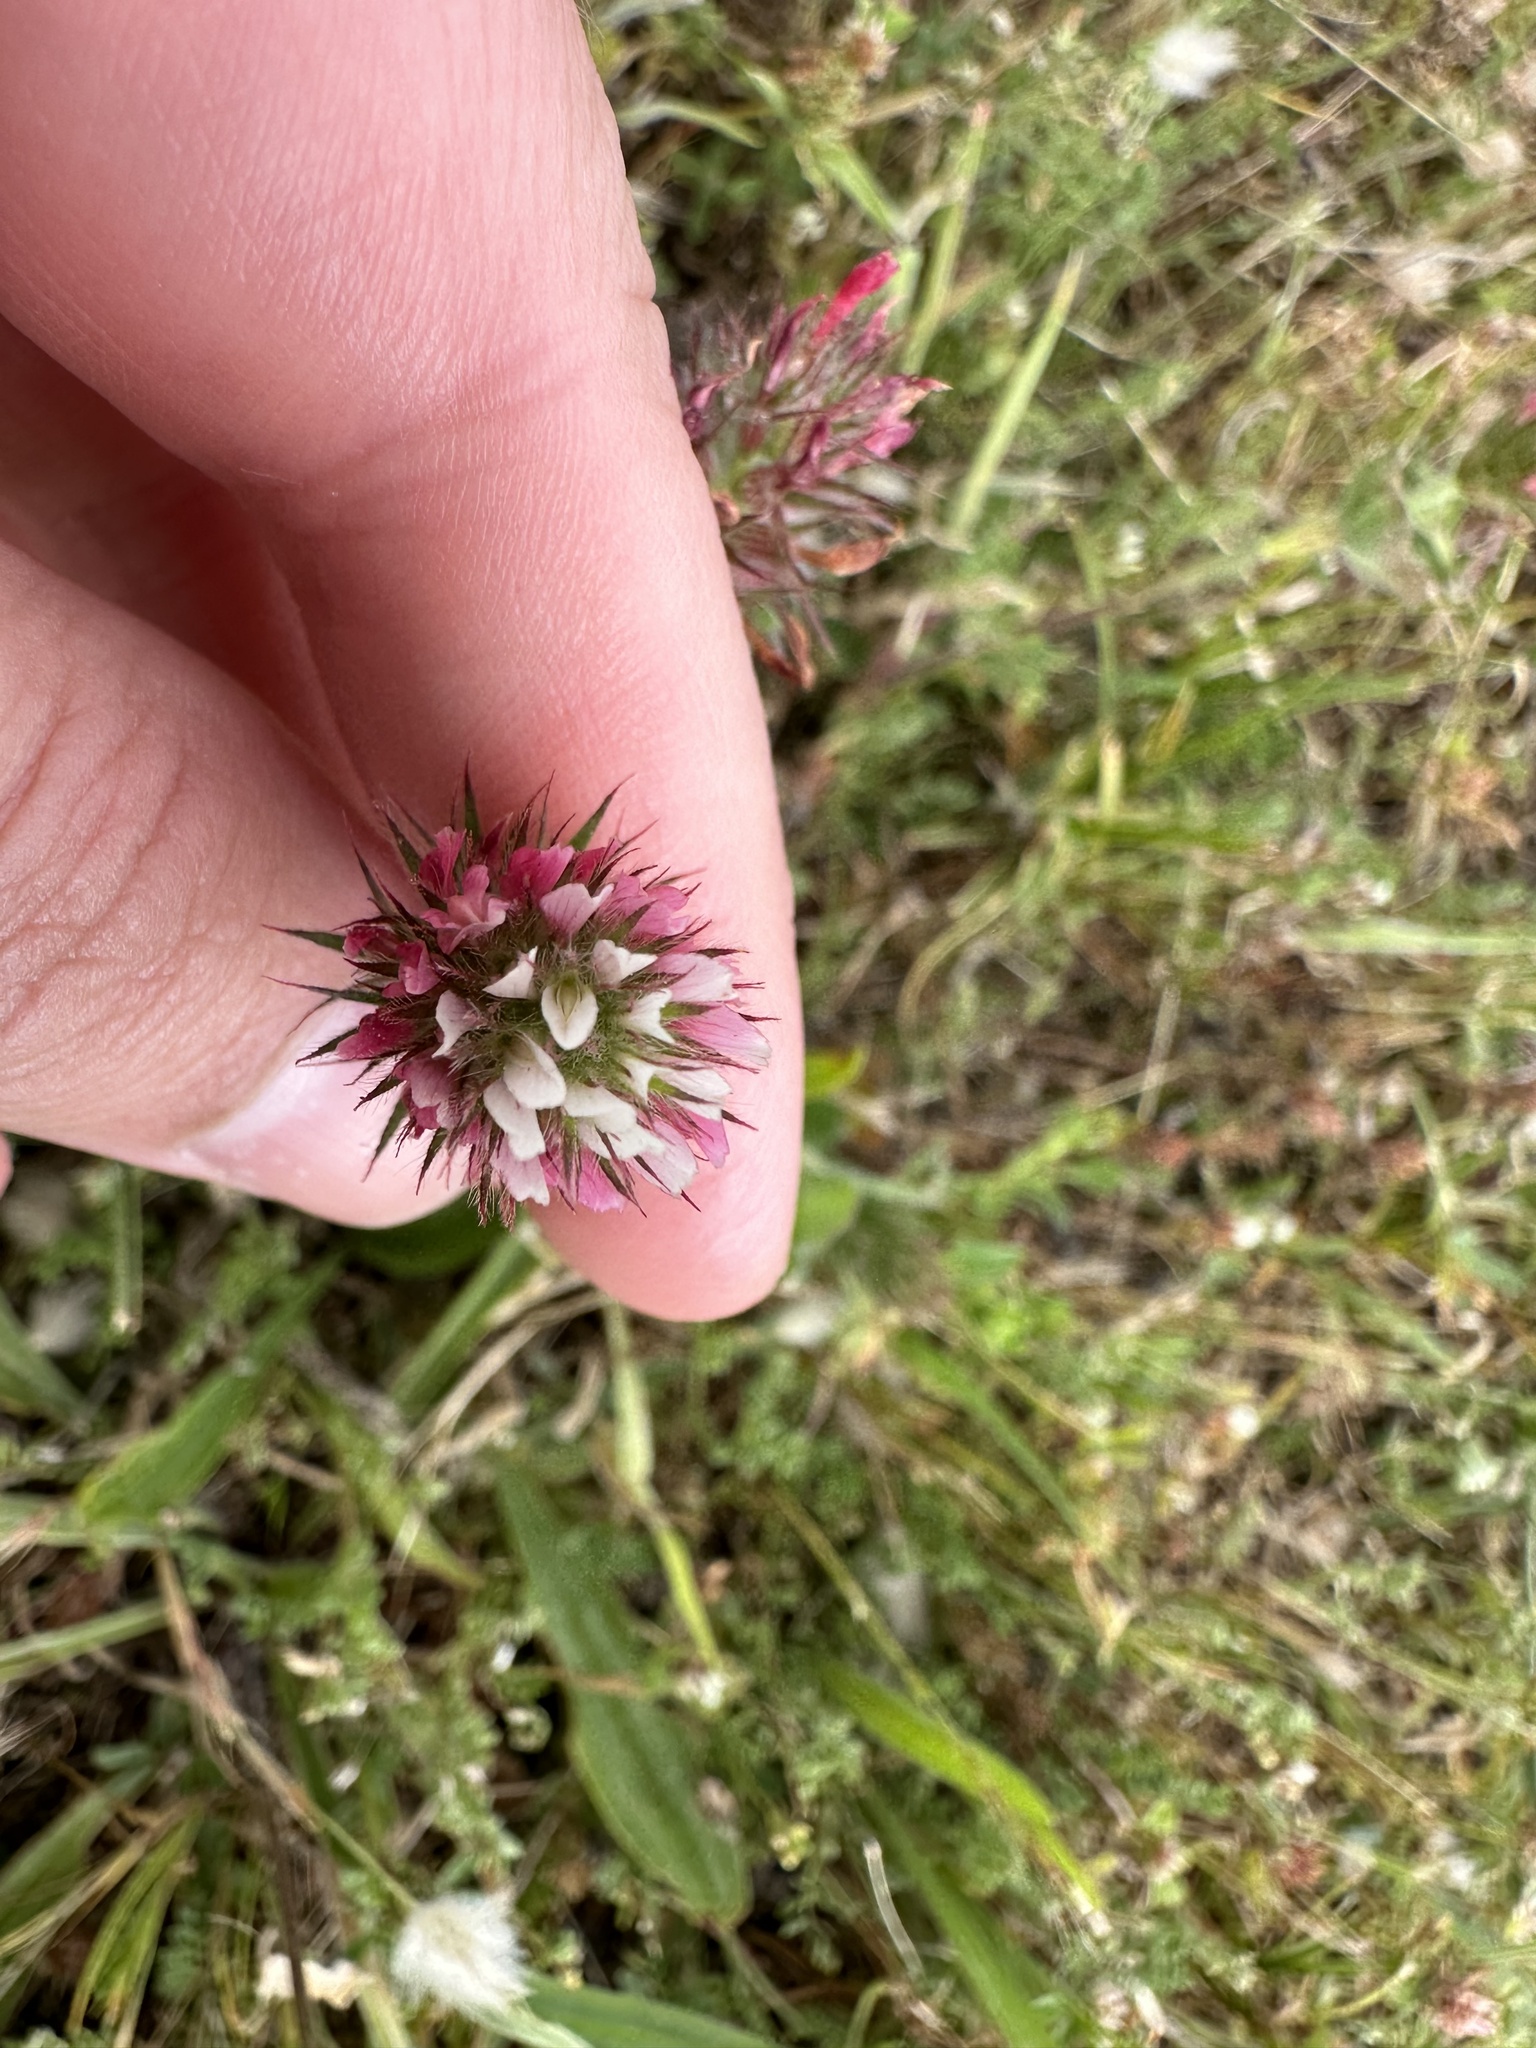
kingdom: Plantae
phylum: Tracheophyta
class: Magnoliopsida
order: Fabales
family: Fabaceae
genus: Trifolium
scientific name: Trifolium incarnatum
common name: Crimson clover
